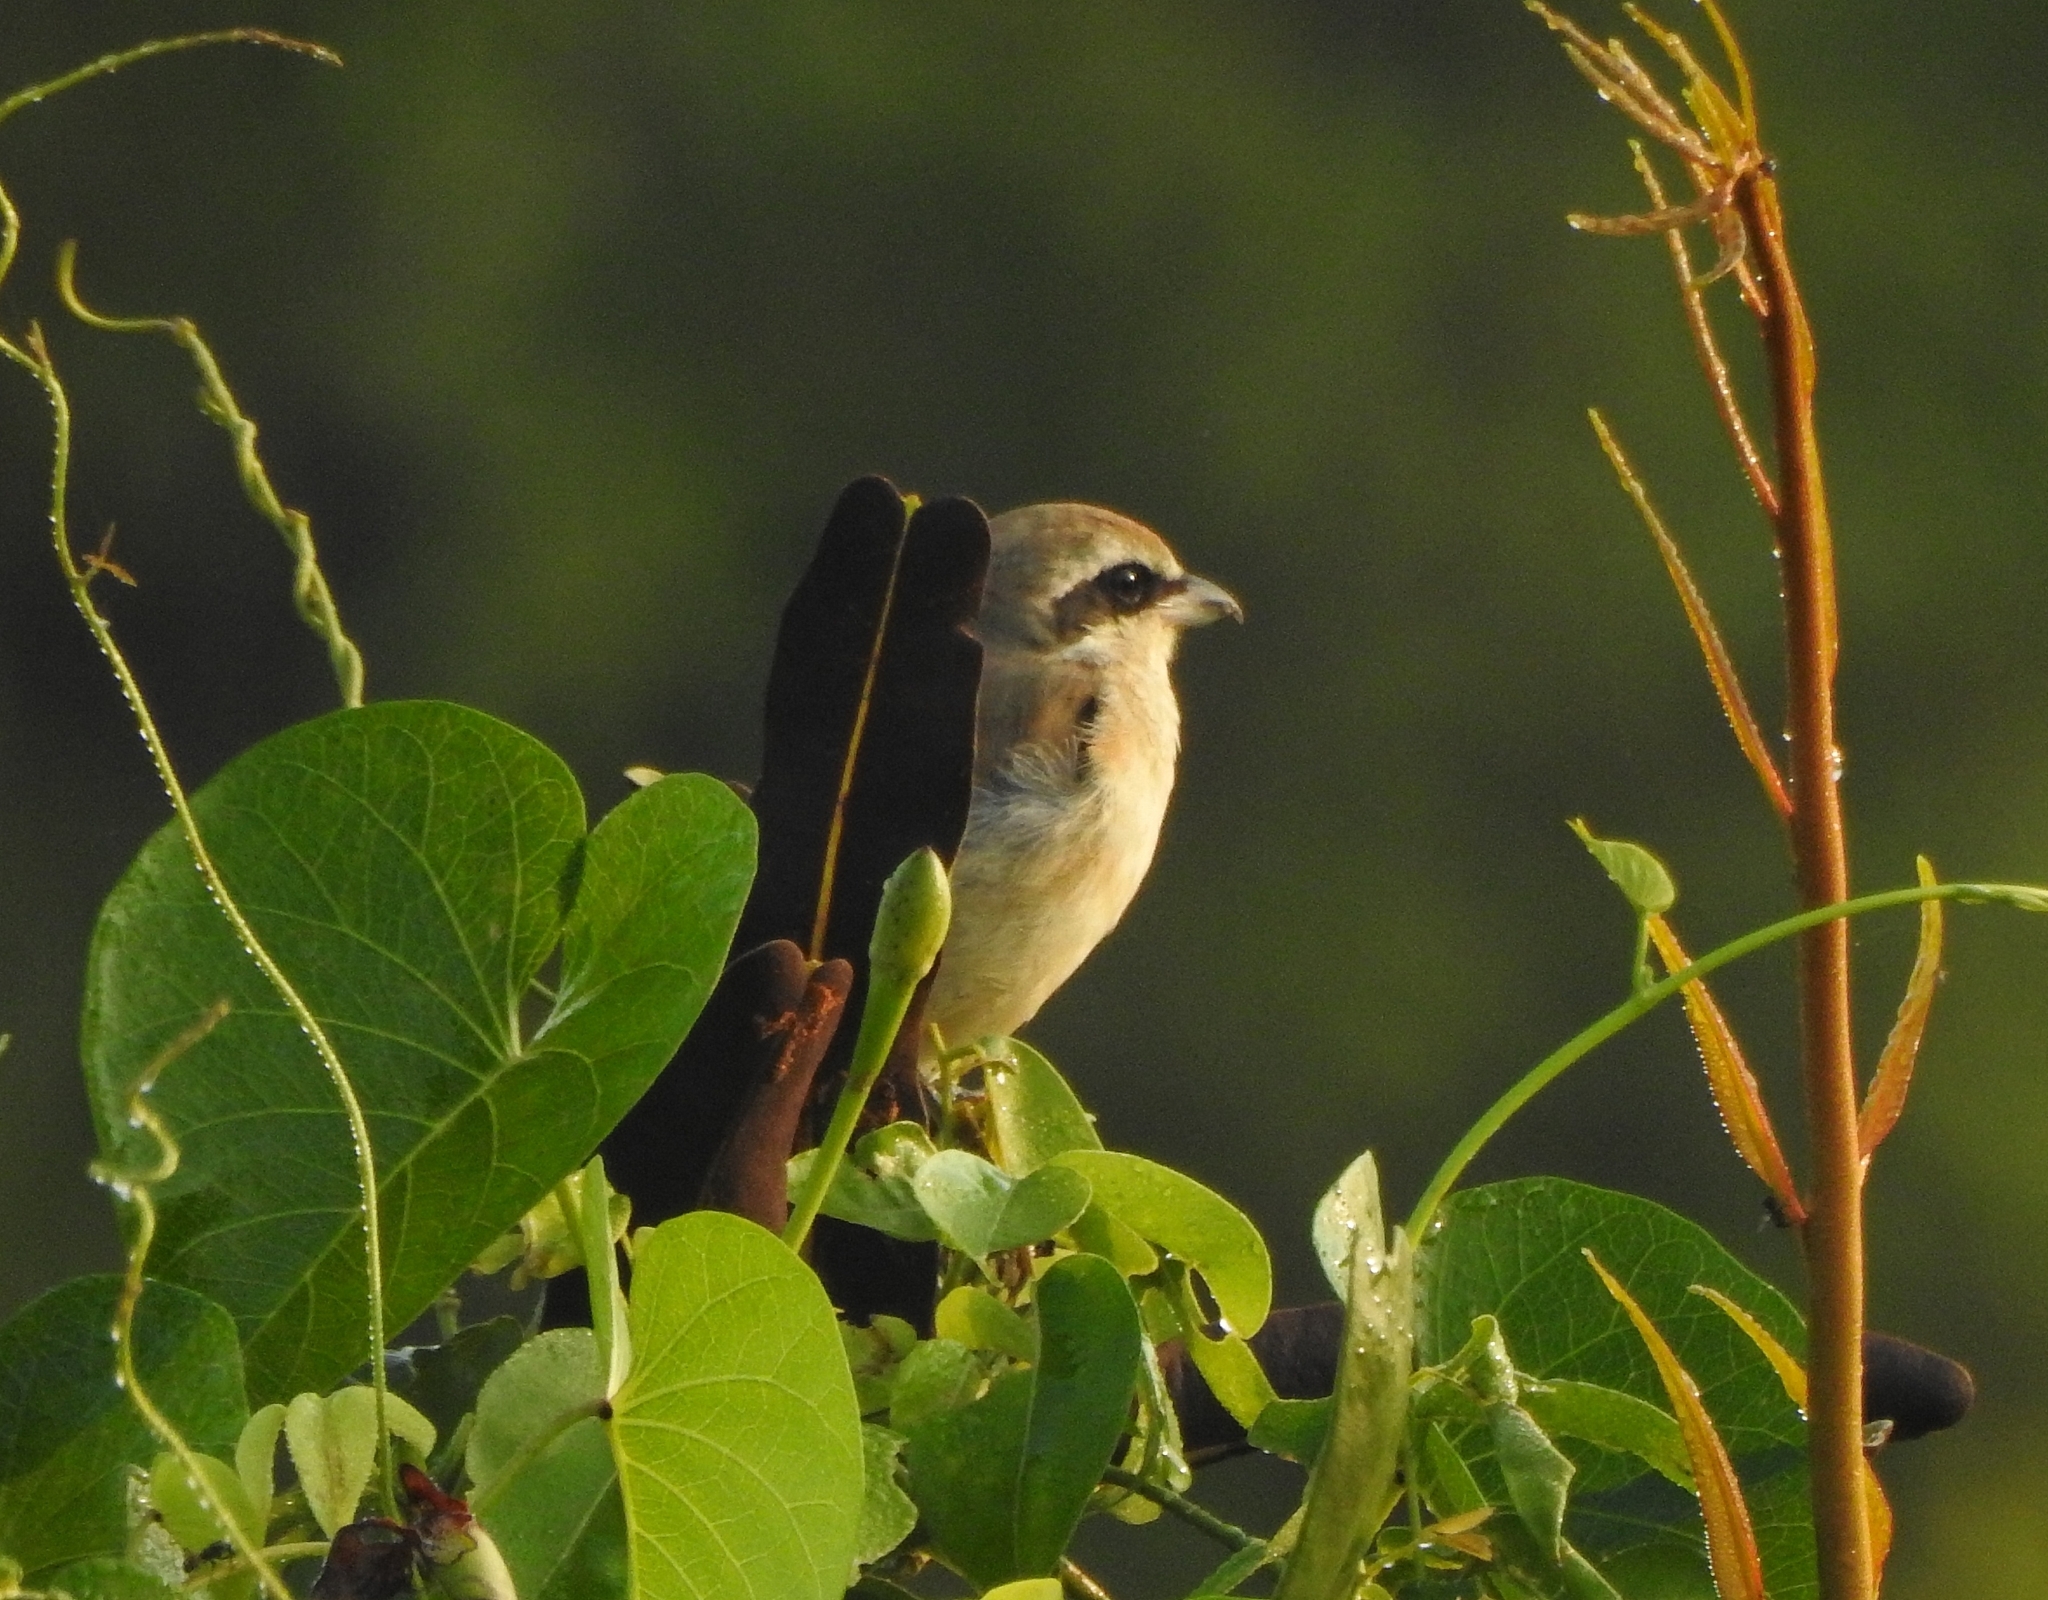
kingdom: Animalia
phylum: Chordata
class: Aves
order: Passeriformes
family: Laniidae
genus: Lanius
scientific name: Lanius cristatus
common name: Brown shrike
